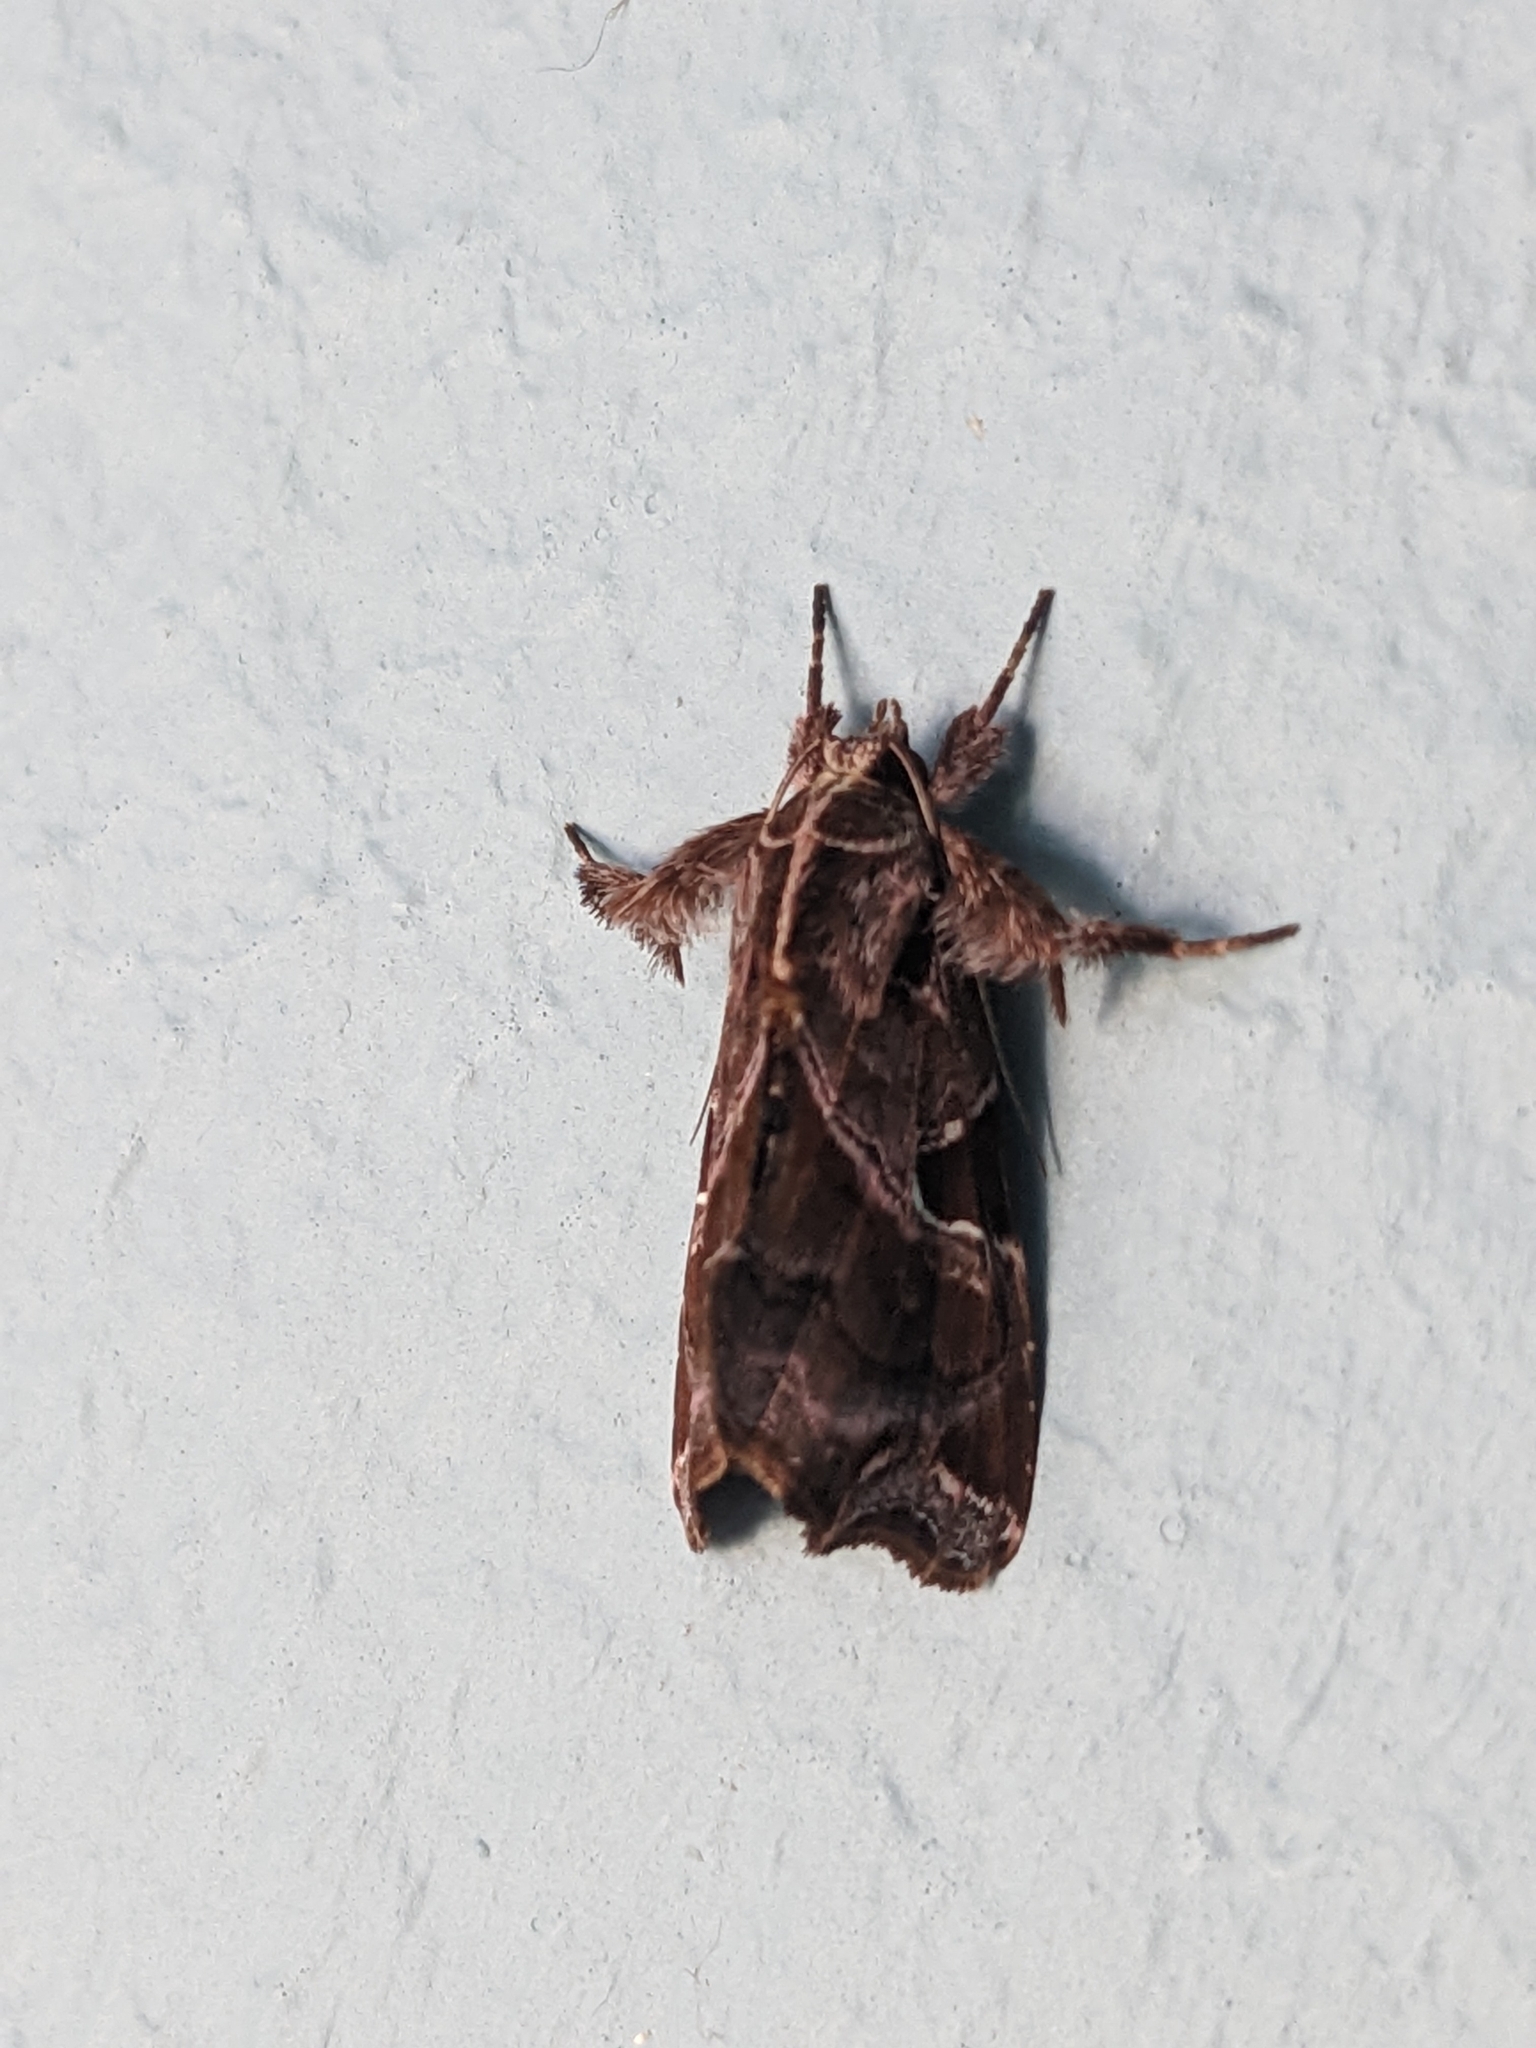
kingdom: Animalia
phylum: Arthropoda
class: Insecta
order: Lepidoptera
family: Noctuidae
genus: Callopistria
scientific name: Callopistria floridensis
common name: Florida fern moth
